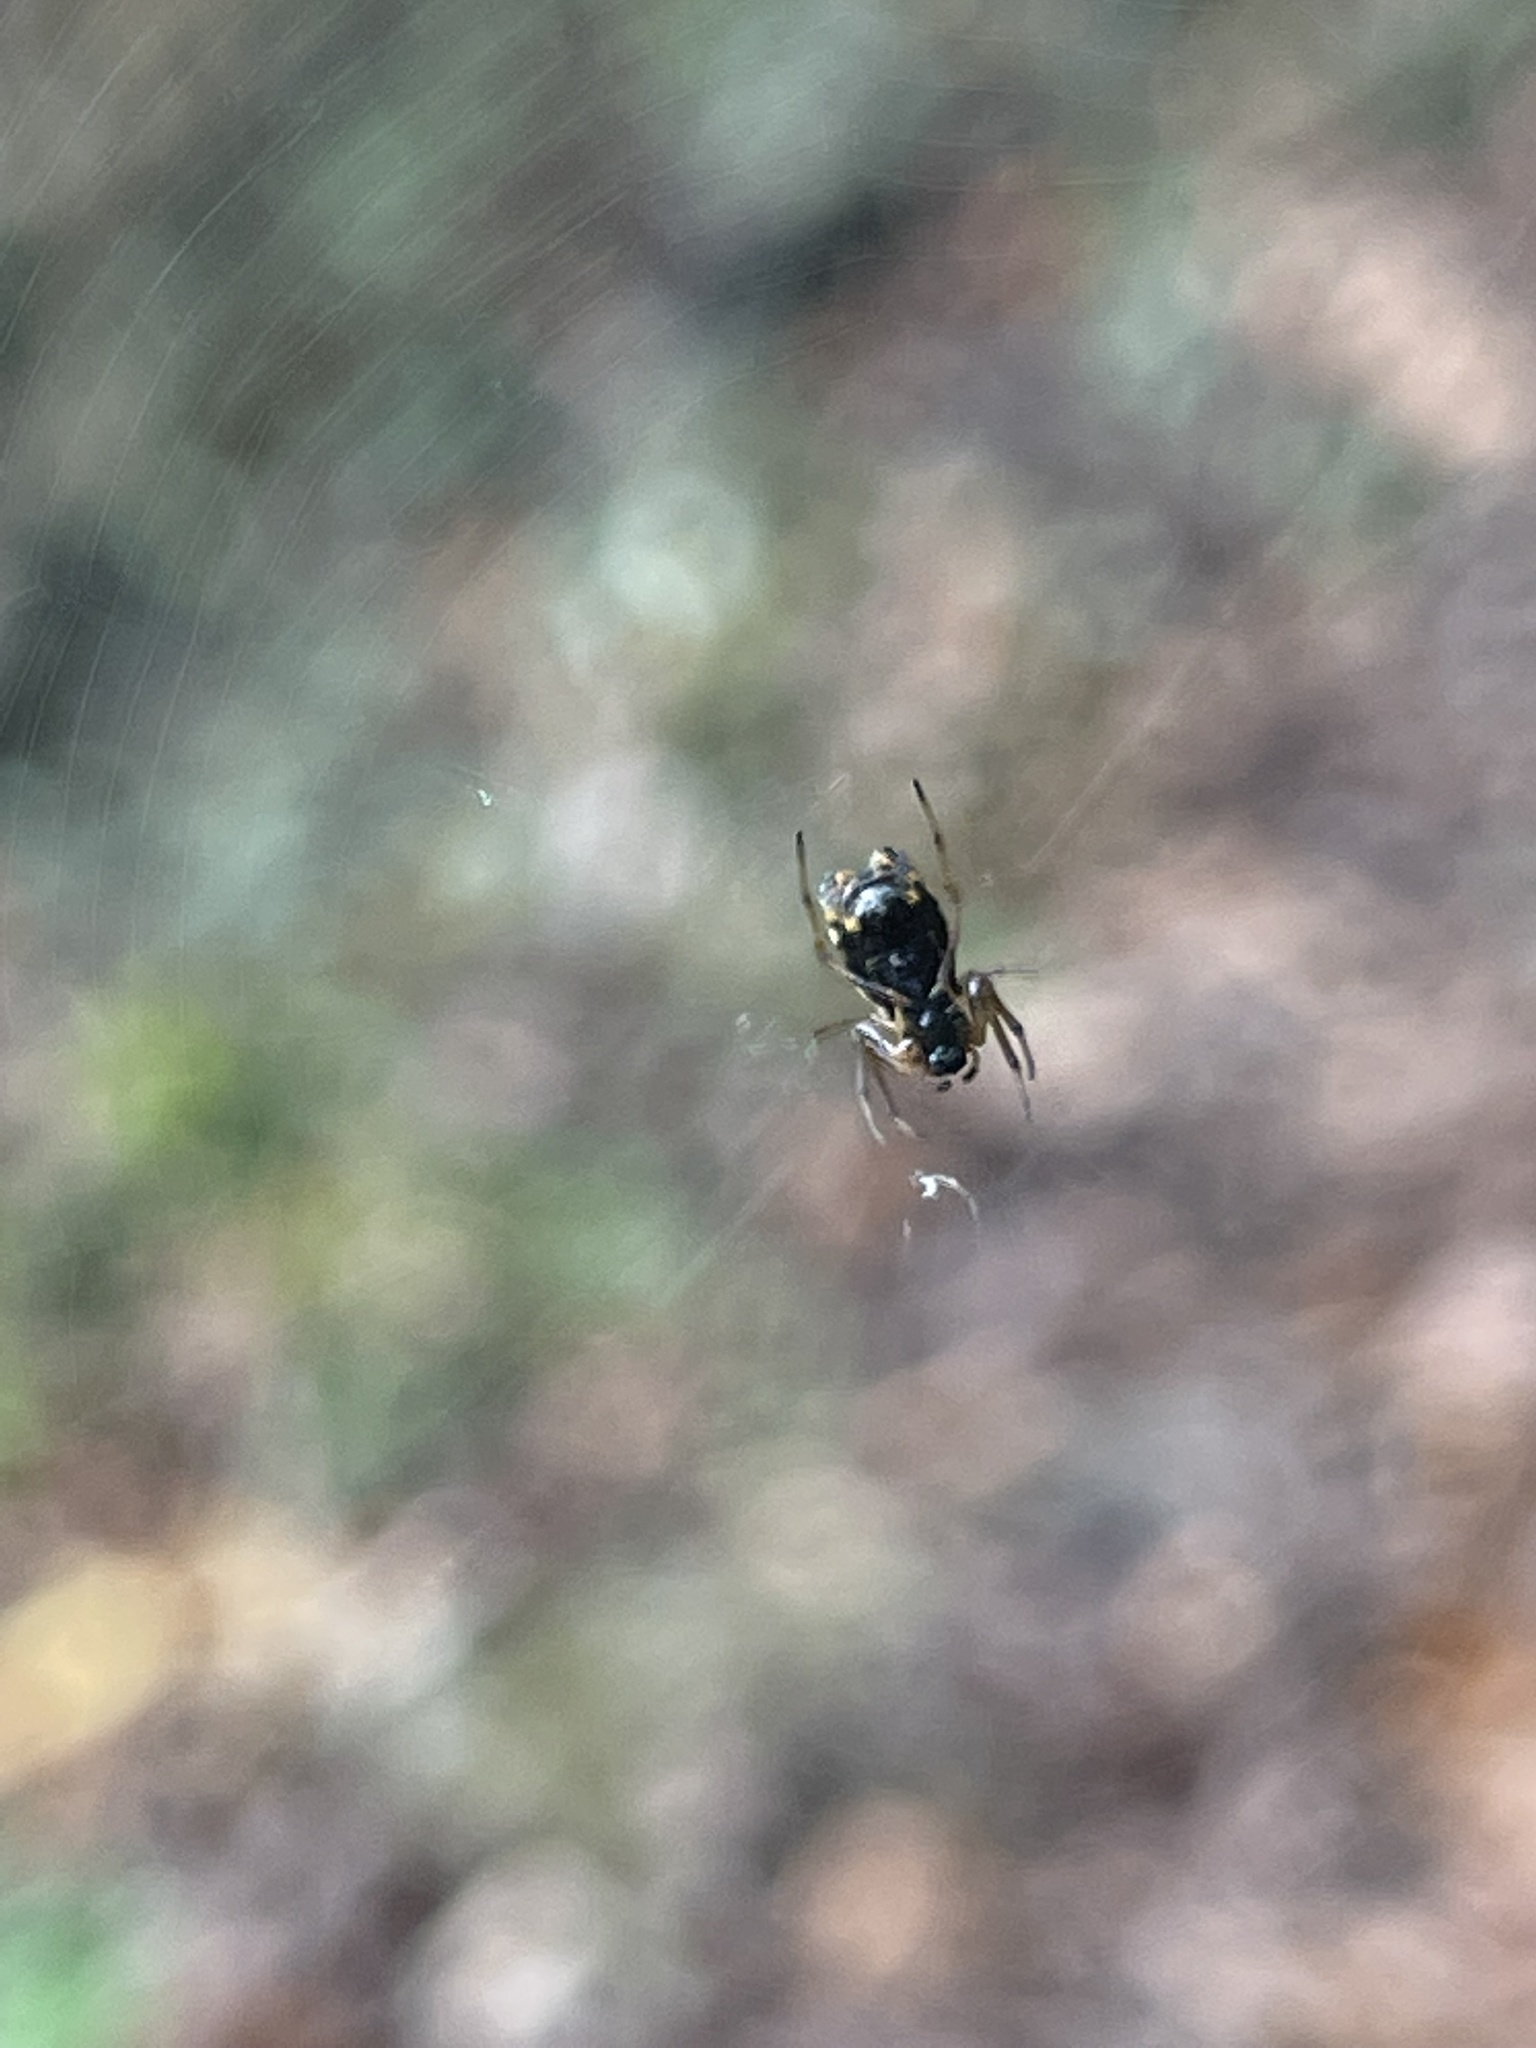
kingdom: Animalia
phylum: Arthropoda
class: Arachnida
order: Araneae
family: Araneidae
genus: Micrathena
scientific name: Micrathena mitrata
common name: Orb weavers
